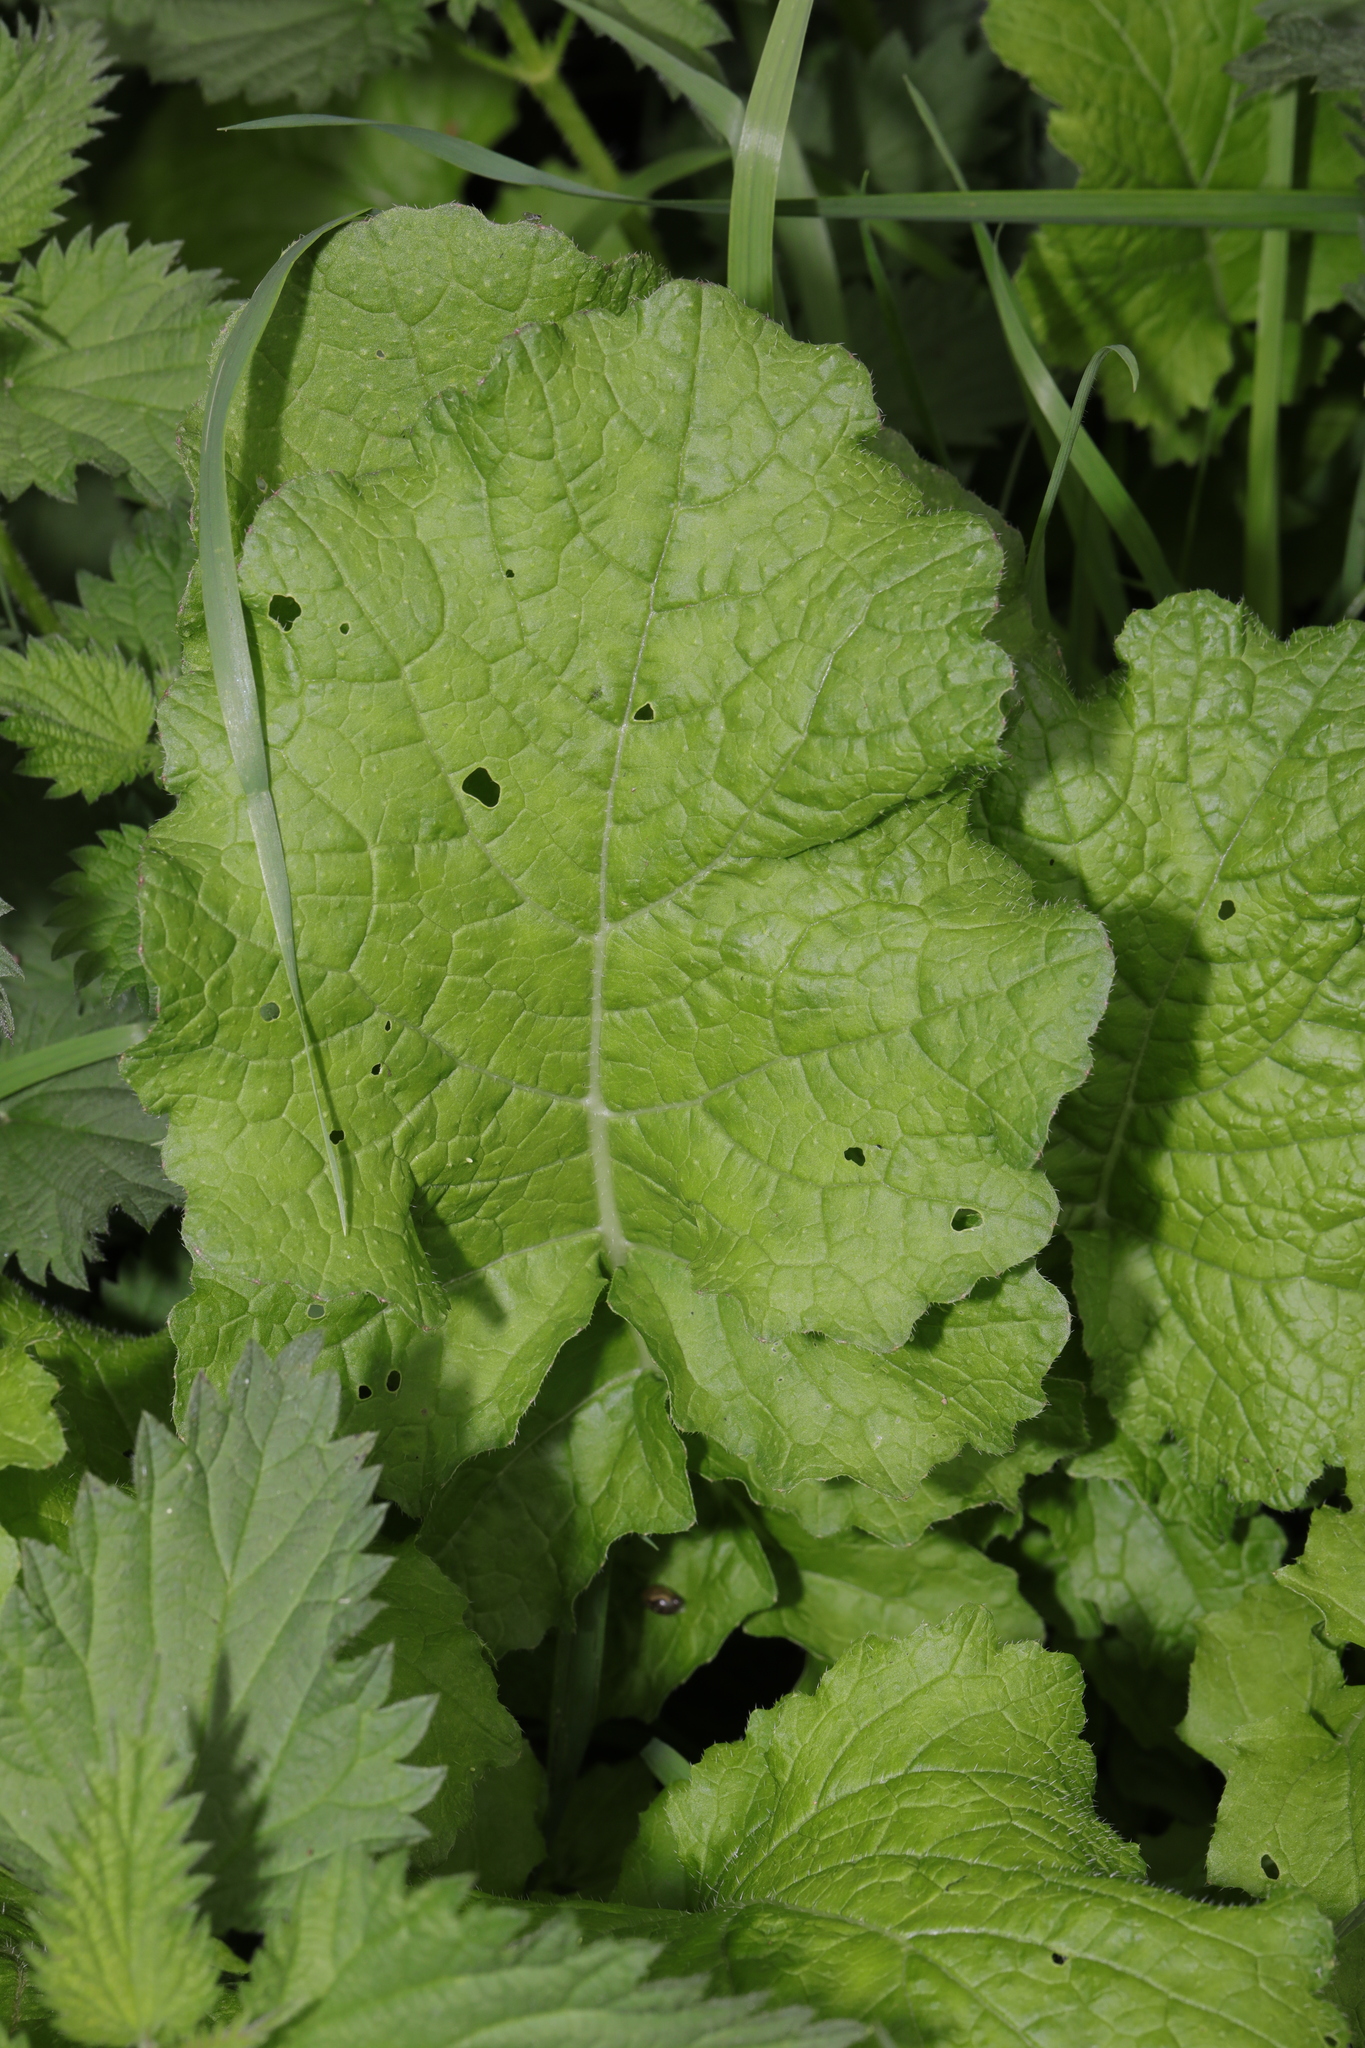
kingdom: Plantae
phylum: Tracheophyta
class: Magnoliopsida
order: Asterales
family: Asteraceae
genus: Arctium
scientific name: Arctium minus
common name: Lesser burdock
